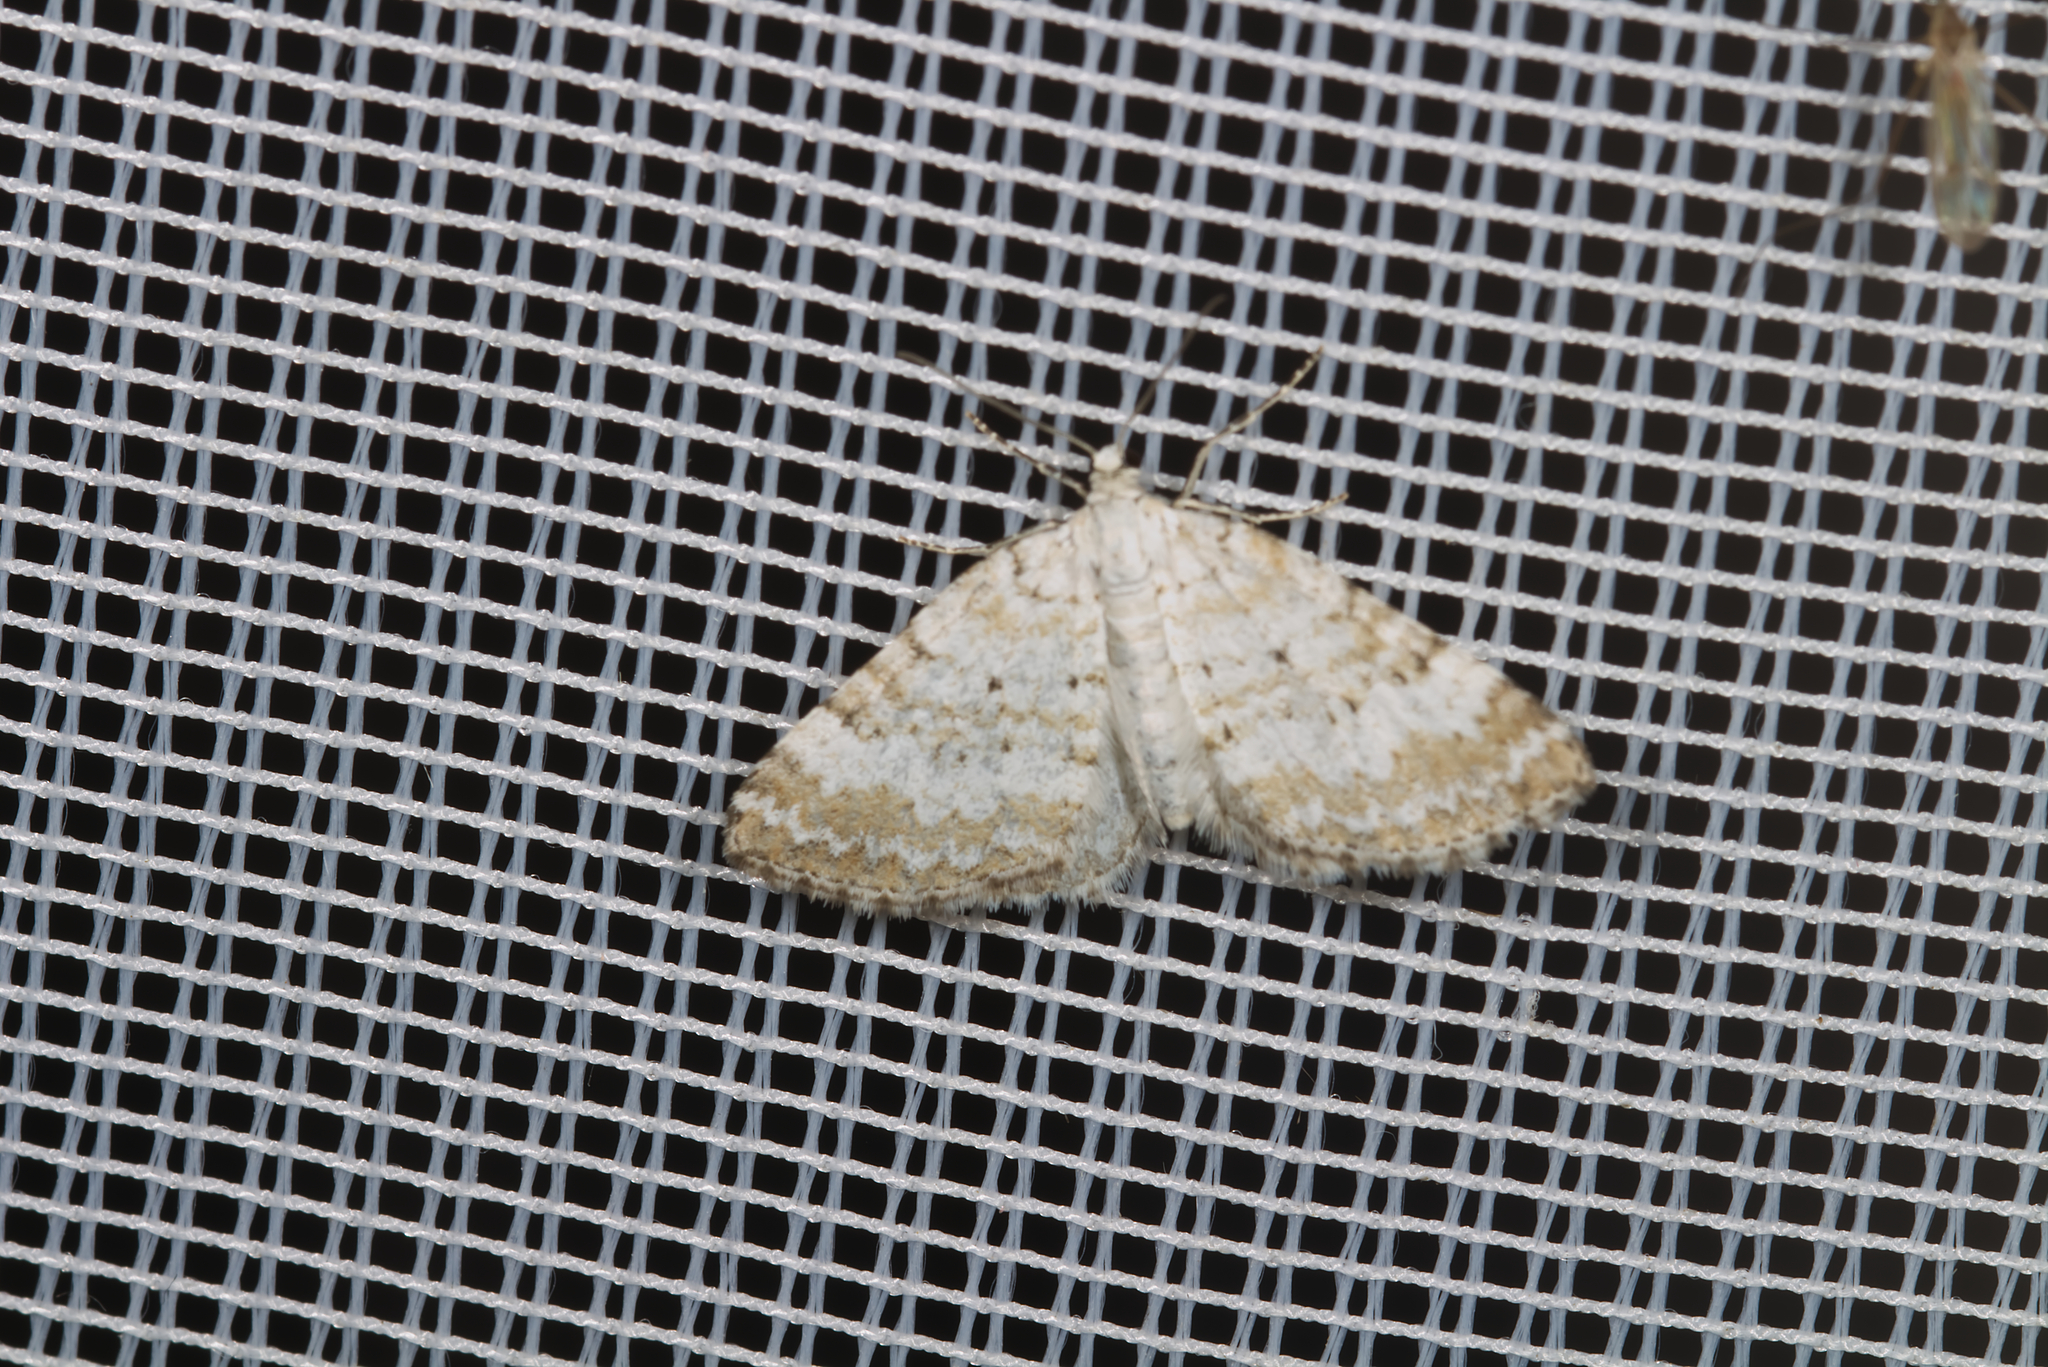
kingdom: Animalia
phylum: Arthropoda
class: Insecta
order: Lepidoptera
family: Geometridae
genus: Perizoma
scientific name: Perizoma albulata
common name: Grass rivulet
